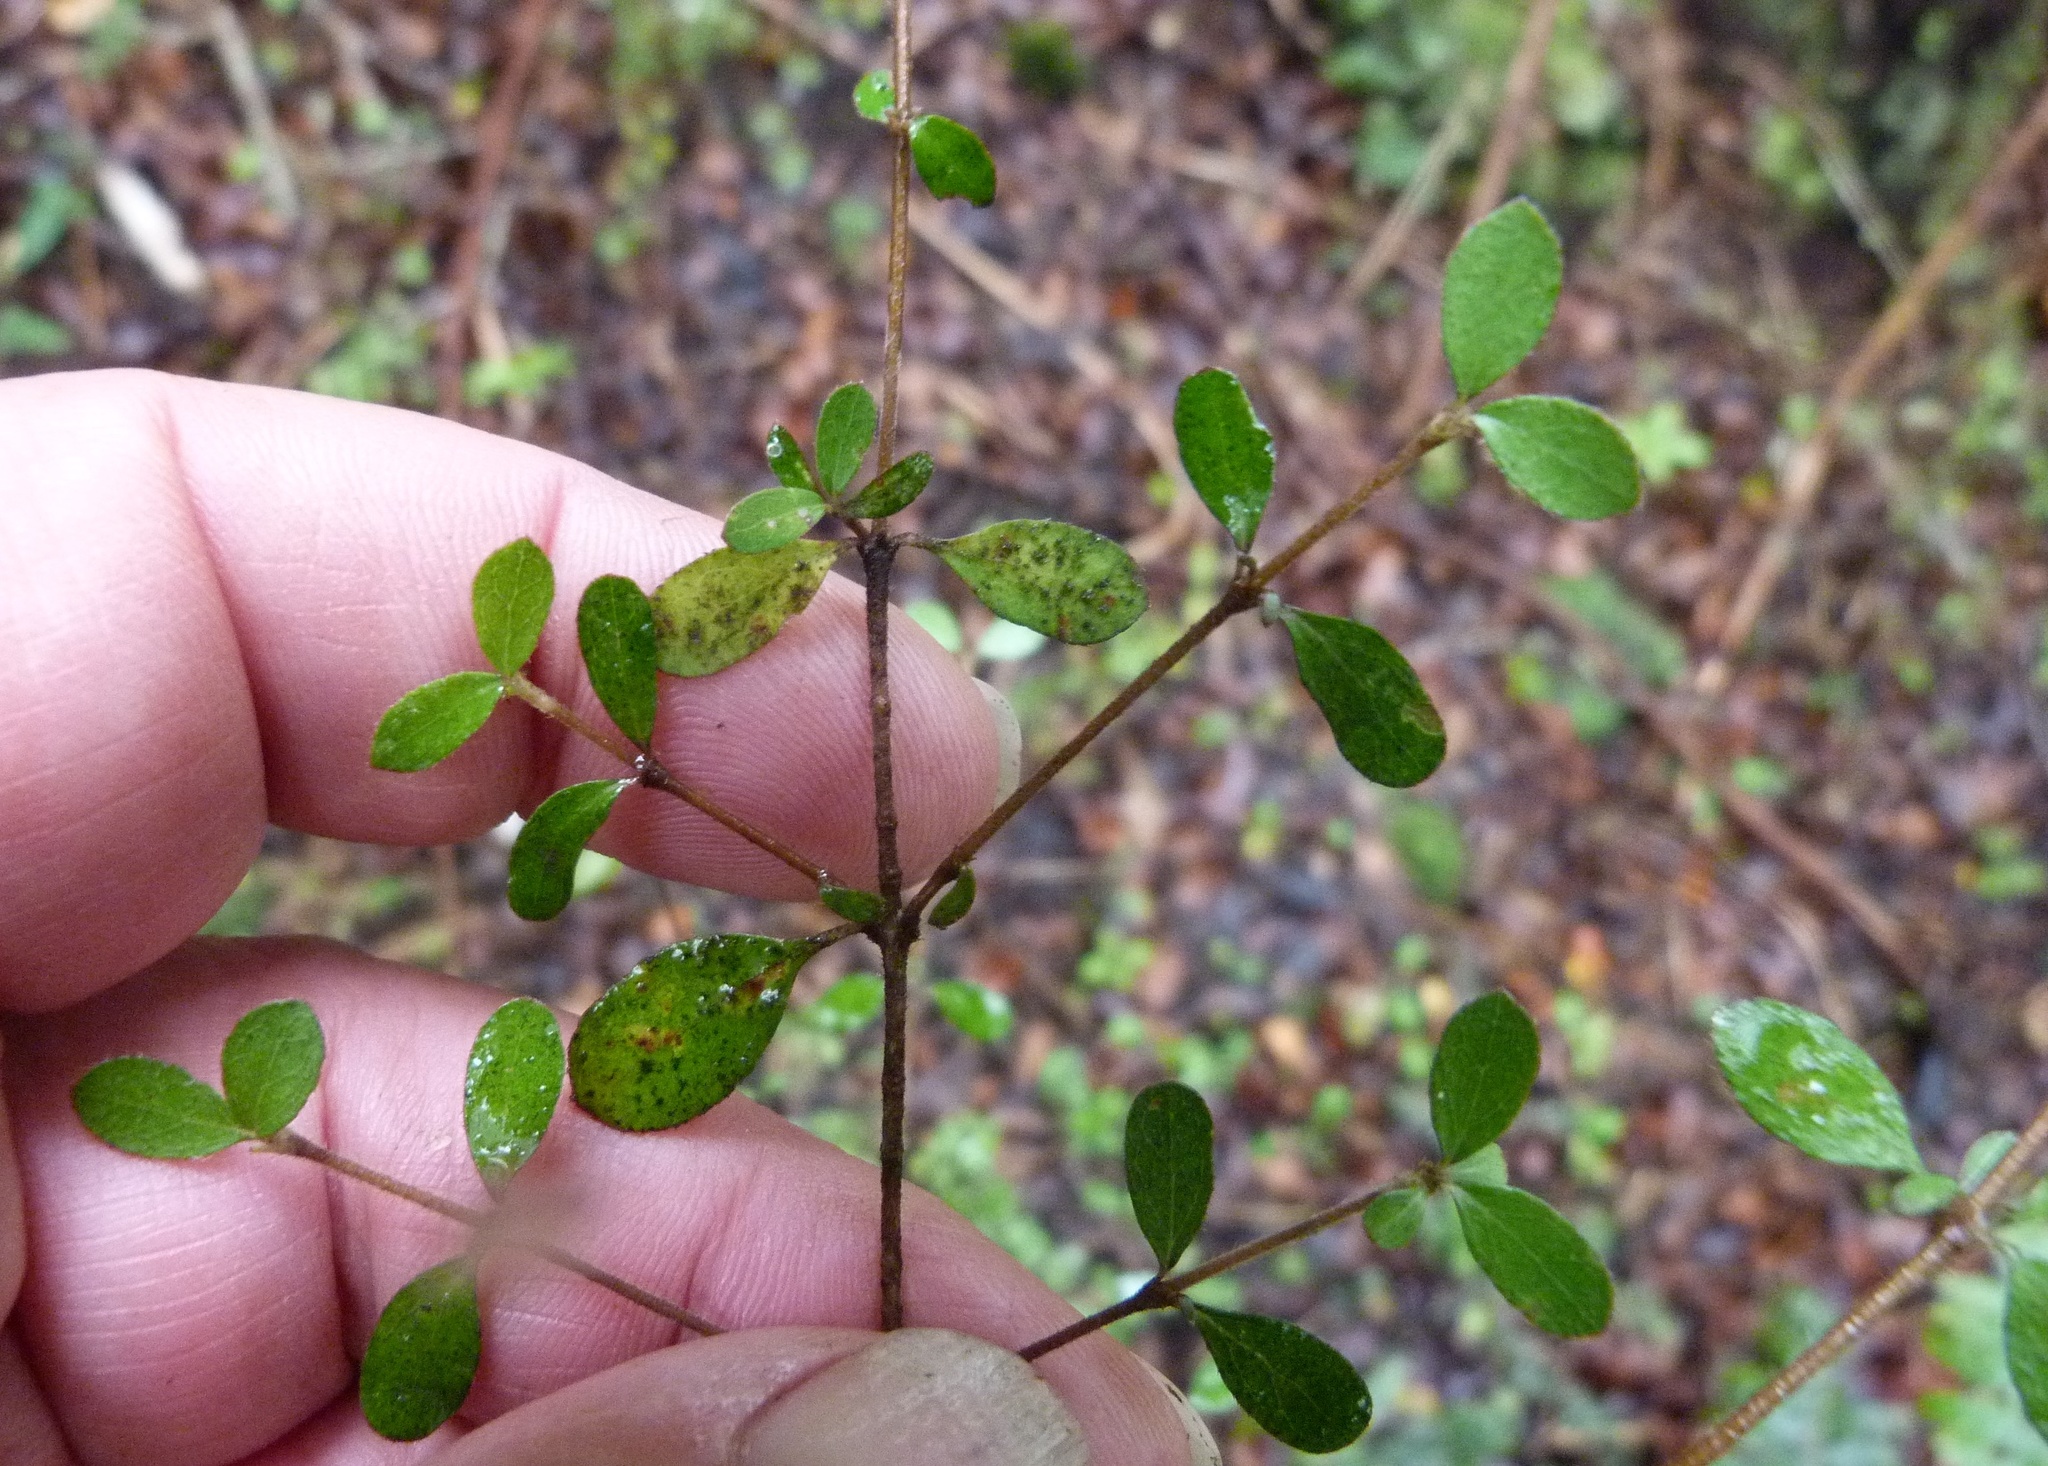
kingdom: Plantae
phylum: Tracheophyta
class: Magnoliopsida
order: Gentianales
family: Rubiaceae
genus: Coprosma
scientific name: Coprosma ciliata
